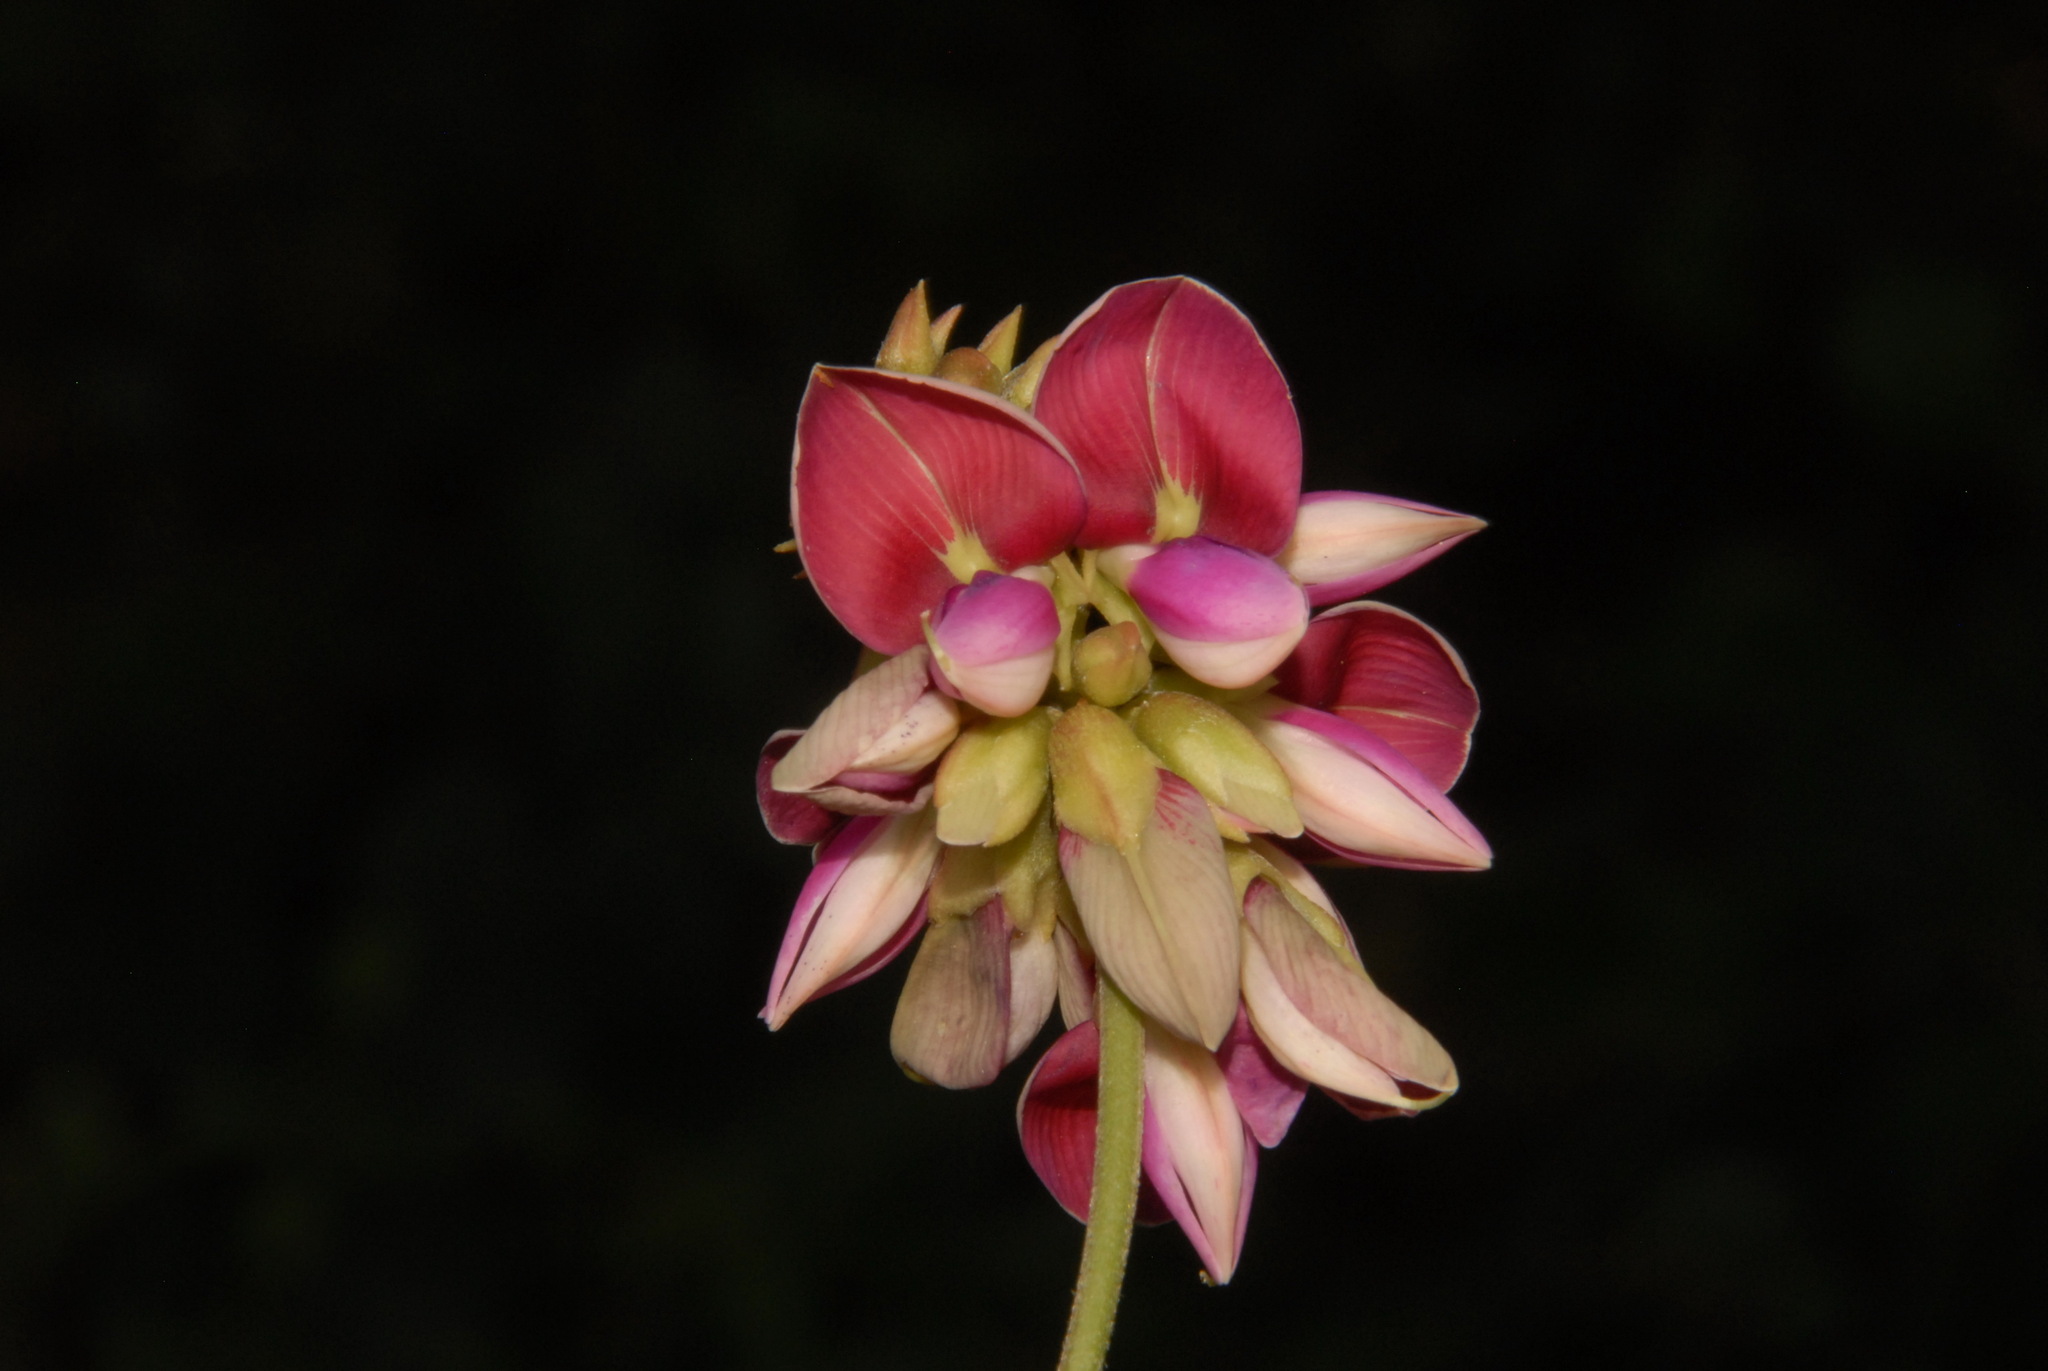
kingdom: Plantae
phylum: Tracheophyta
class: Magnoliopsida
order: Fabales
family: Fabaceae
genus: Lackeya
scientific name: Lackeya multiflora
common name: Boykin's clusterpea
